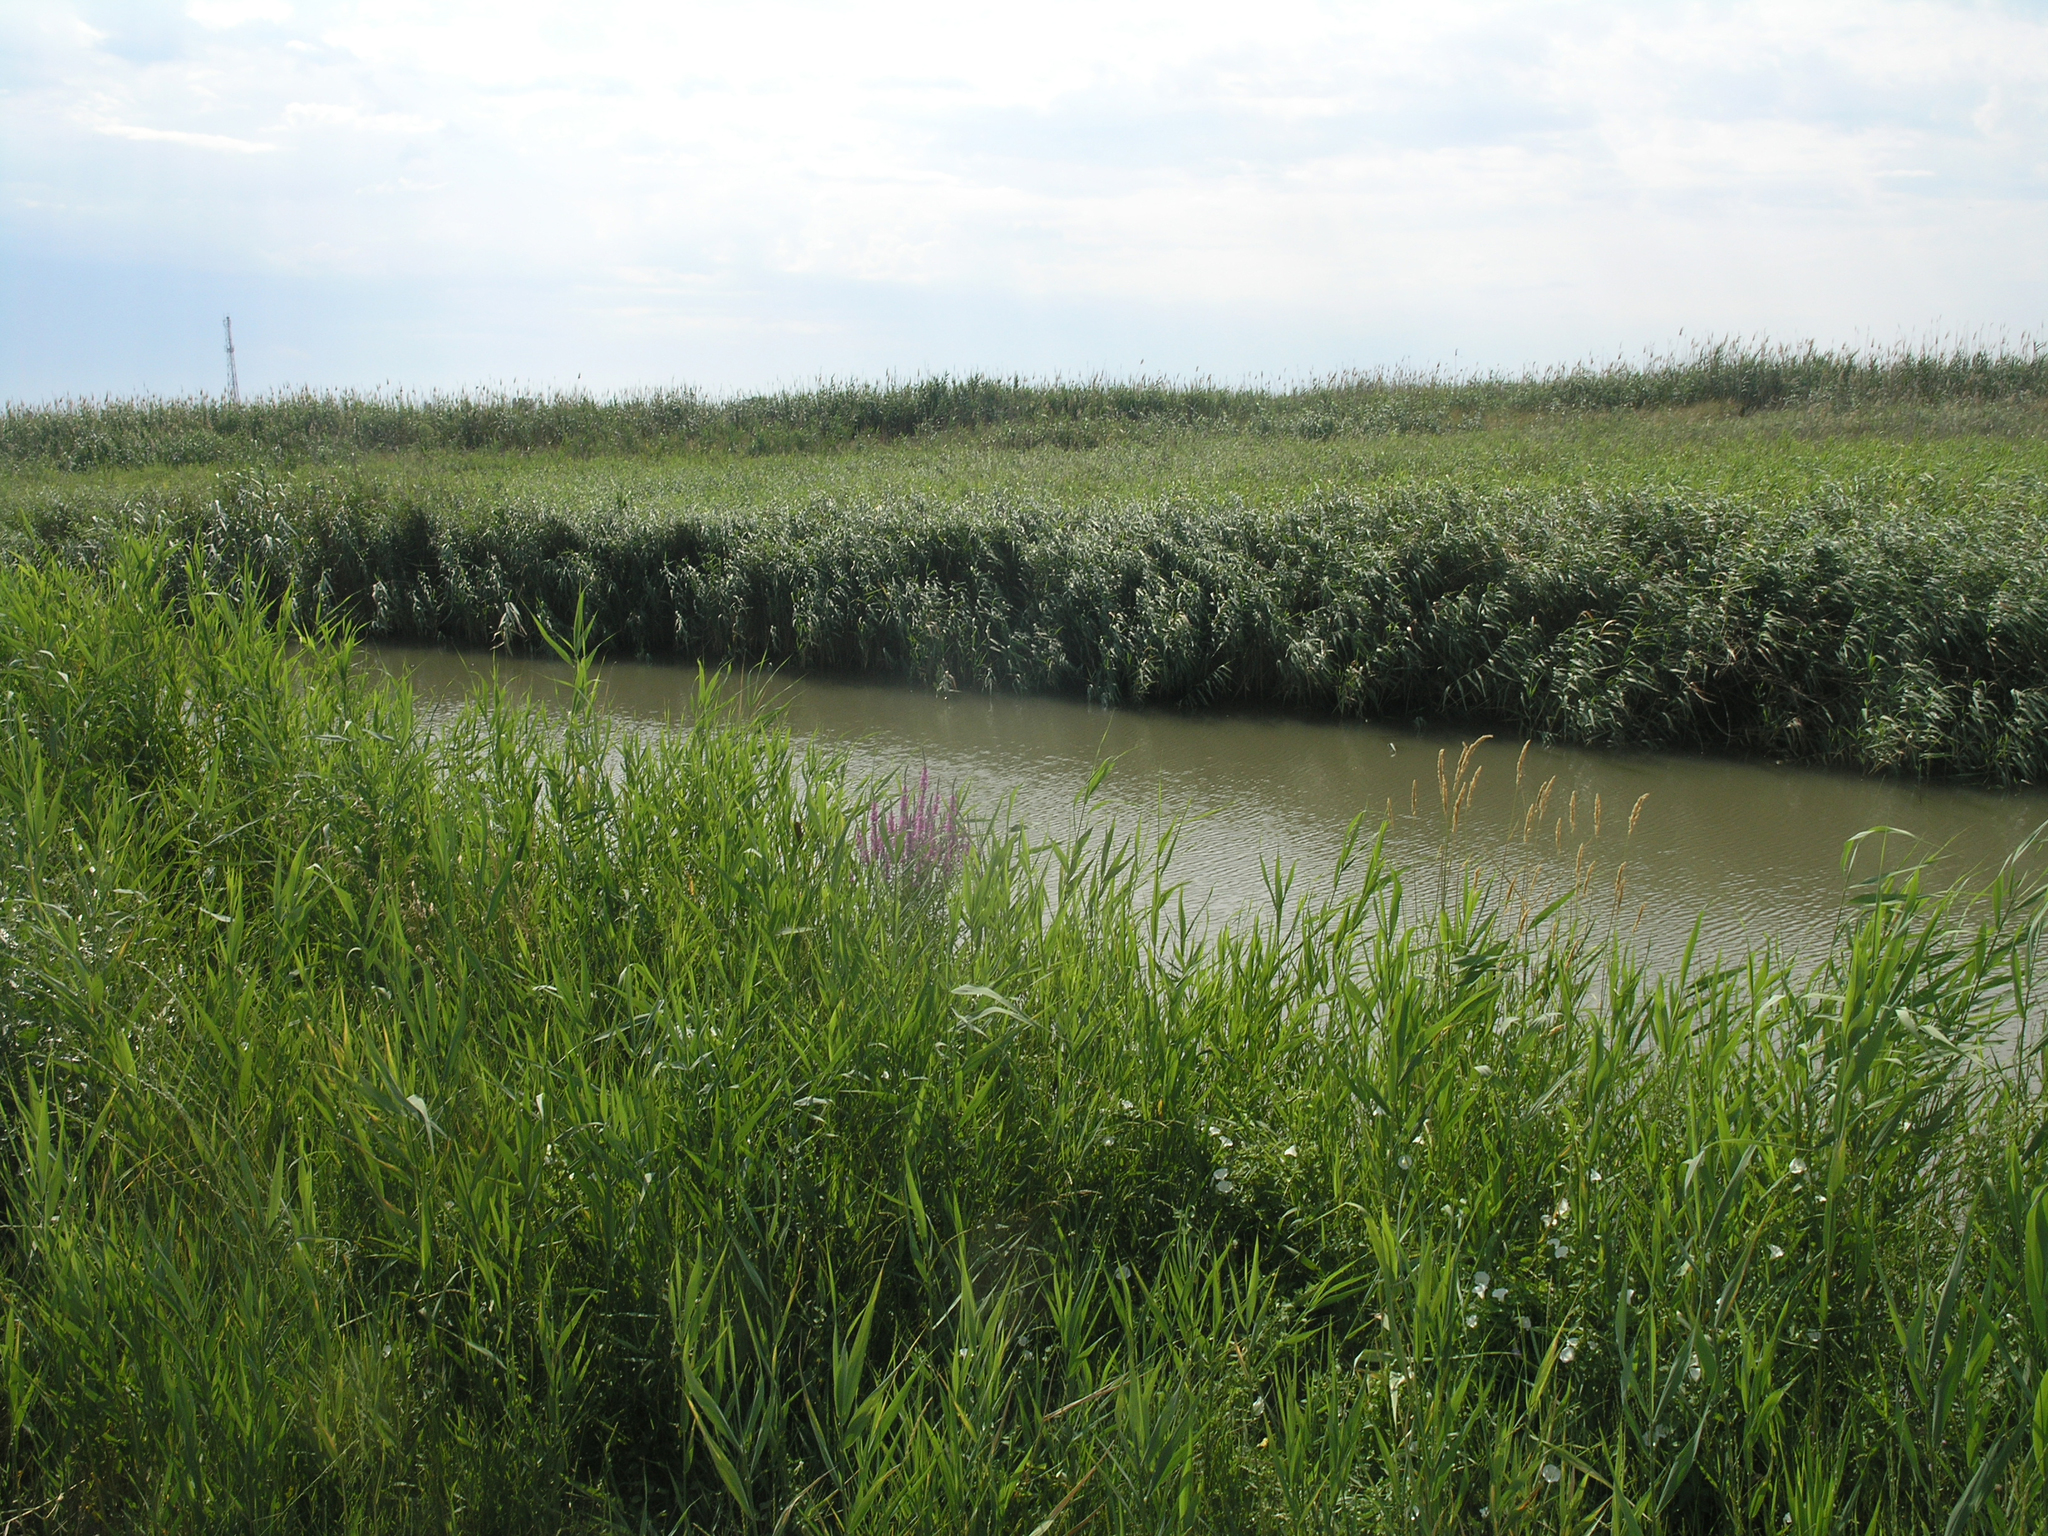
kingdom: Plantae
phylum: Tracheophyta
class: Liliopsida
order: Poales
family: Poaceae
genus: Phragmites
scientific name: Phragmites australis
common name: Common reed
